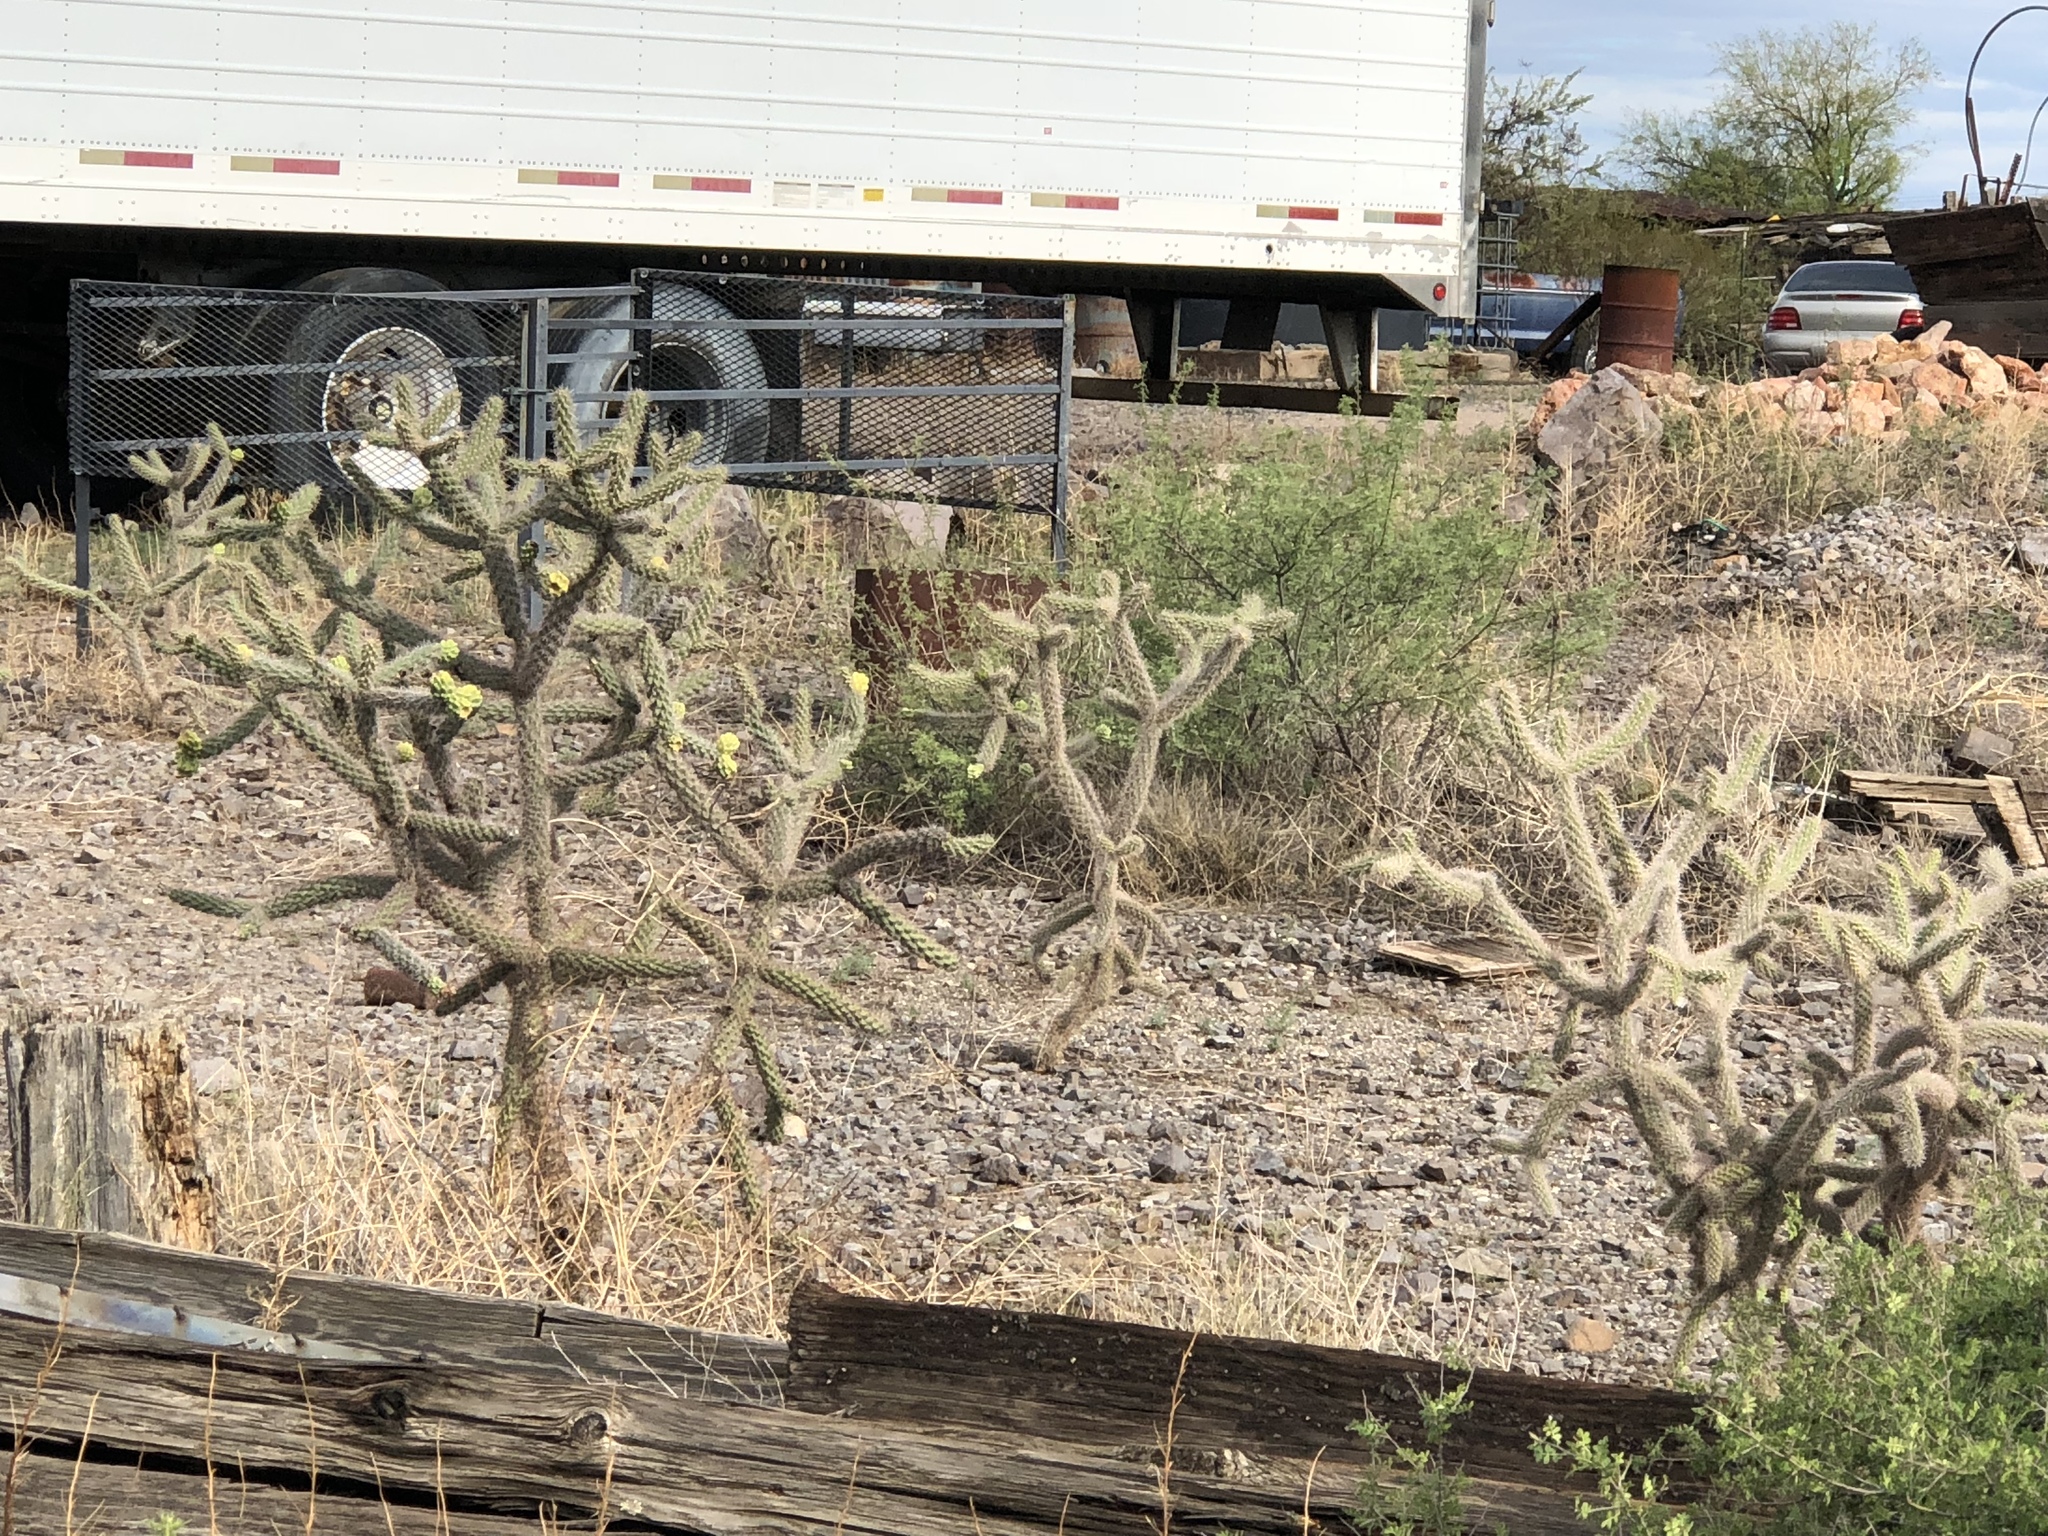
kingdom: Plantae
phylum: Tracheophyta
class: Magnoliopsida
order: Caryophyllales
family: Cactaceae
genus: Cylindropuntia
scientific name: Cylindropuntia imbricata
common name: Candelabrum cactus
